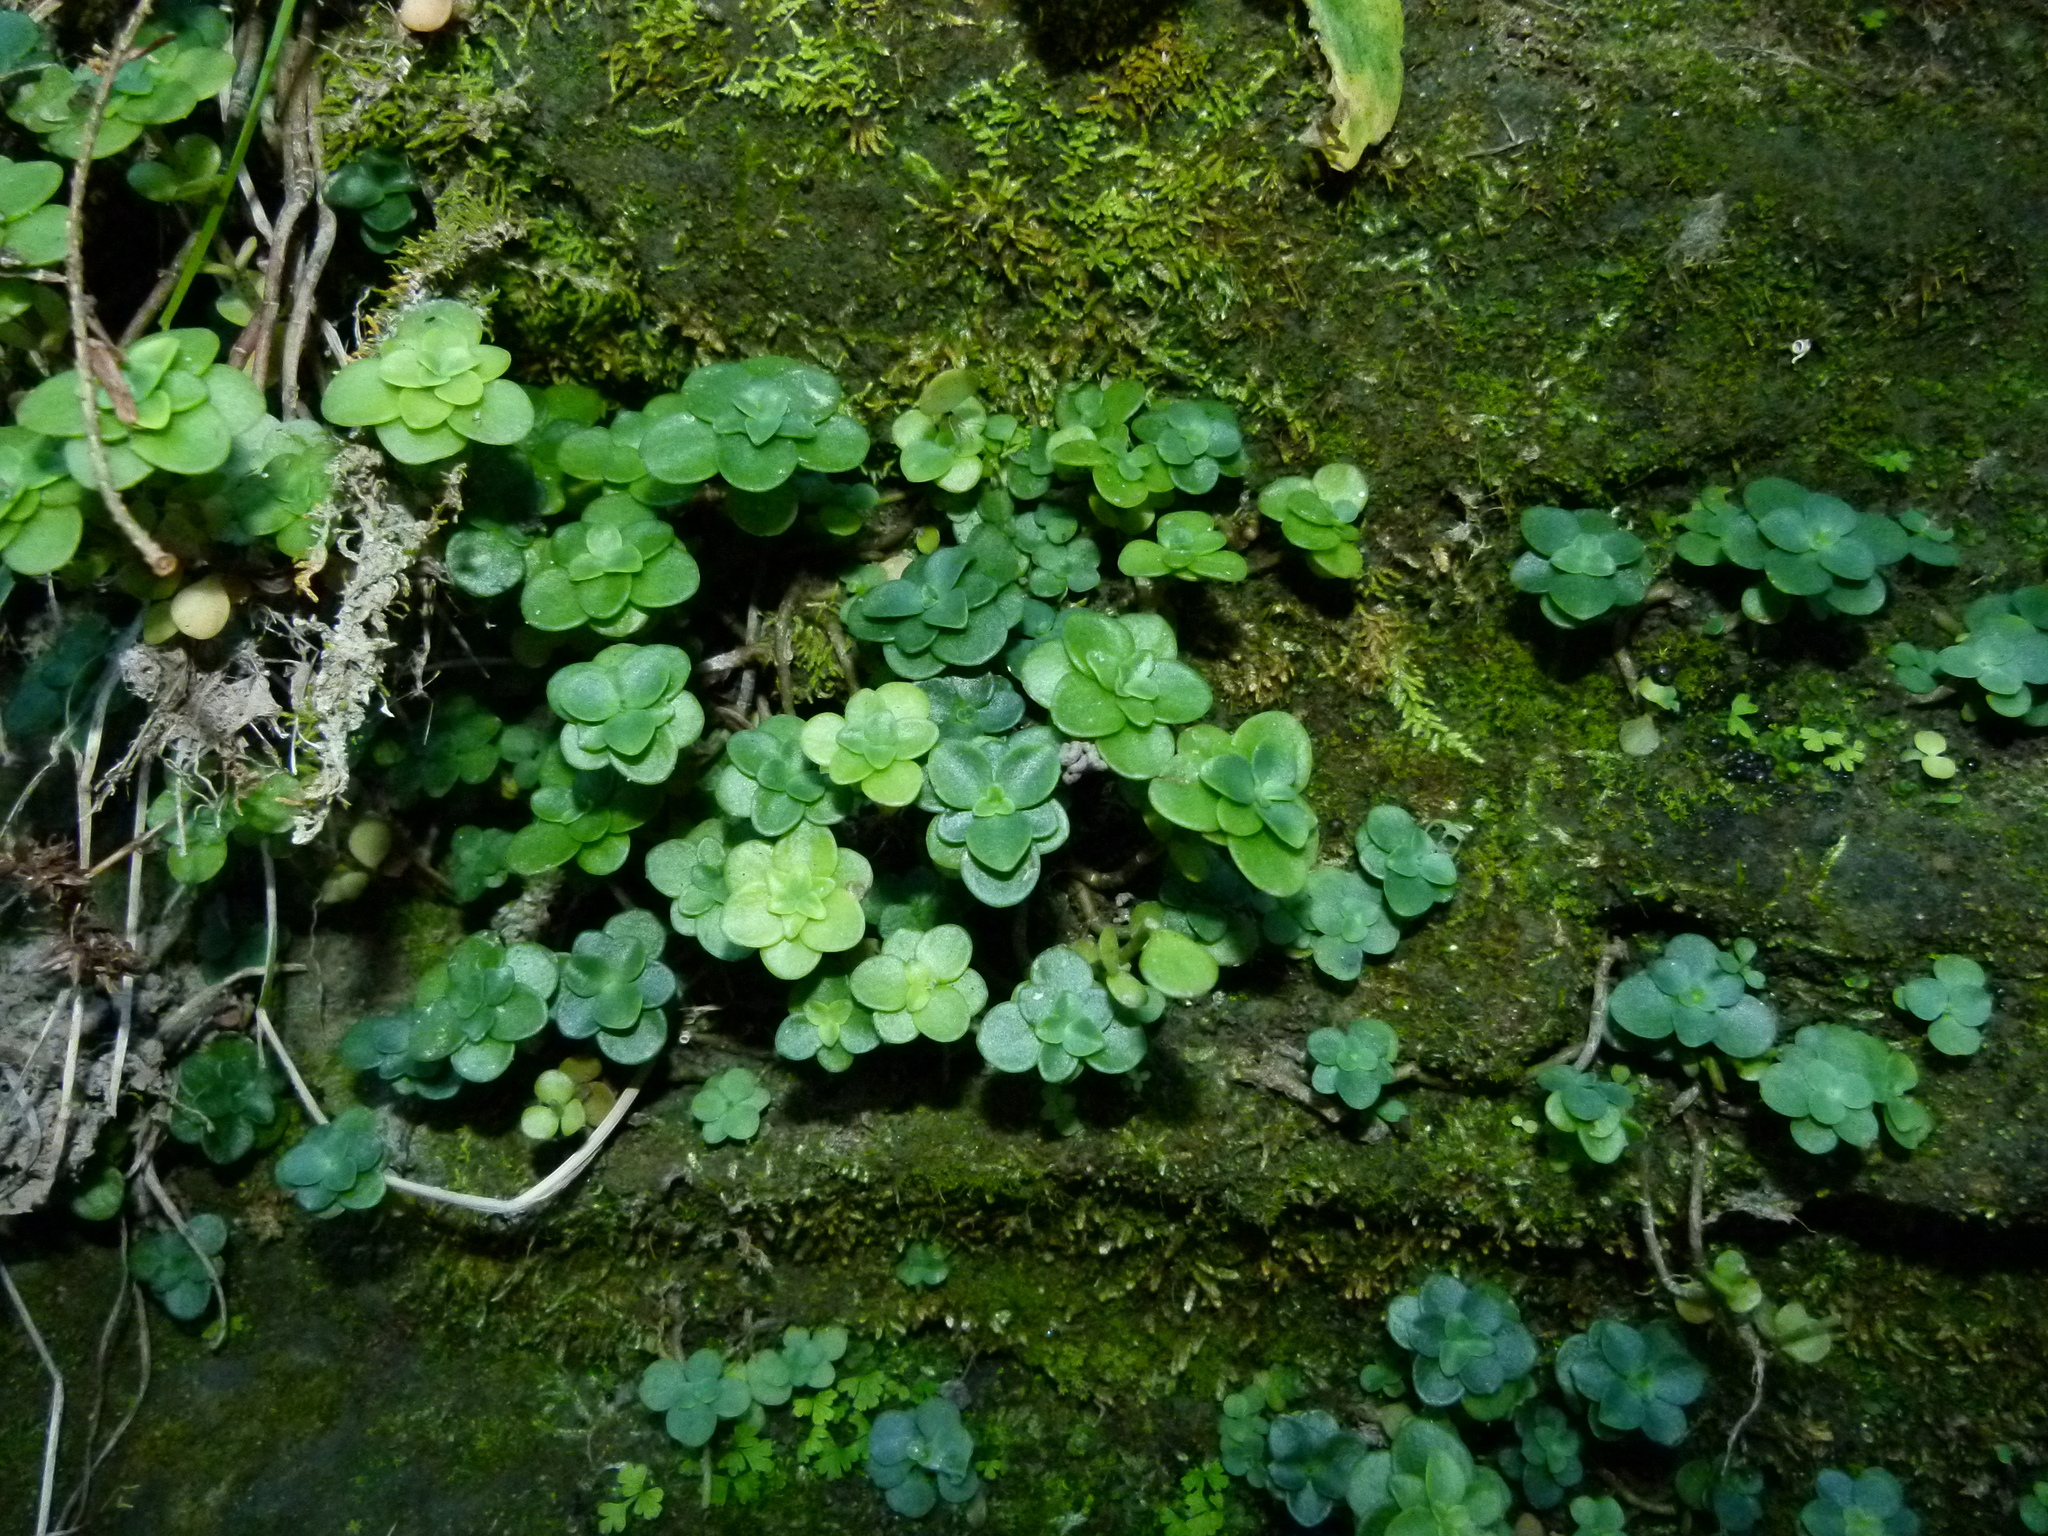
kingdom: Plantae
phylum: Tracheophyta
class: Magnoliopsida
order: Saxifragales
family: Crassulaceae
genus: Sedum
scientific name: Sedum ternatum
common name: Wild stonecrop
